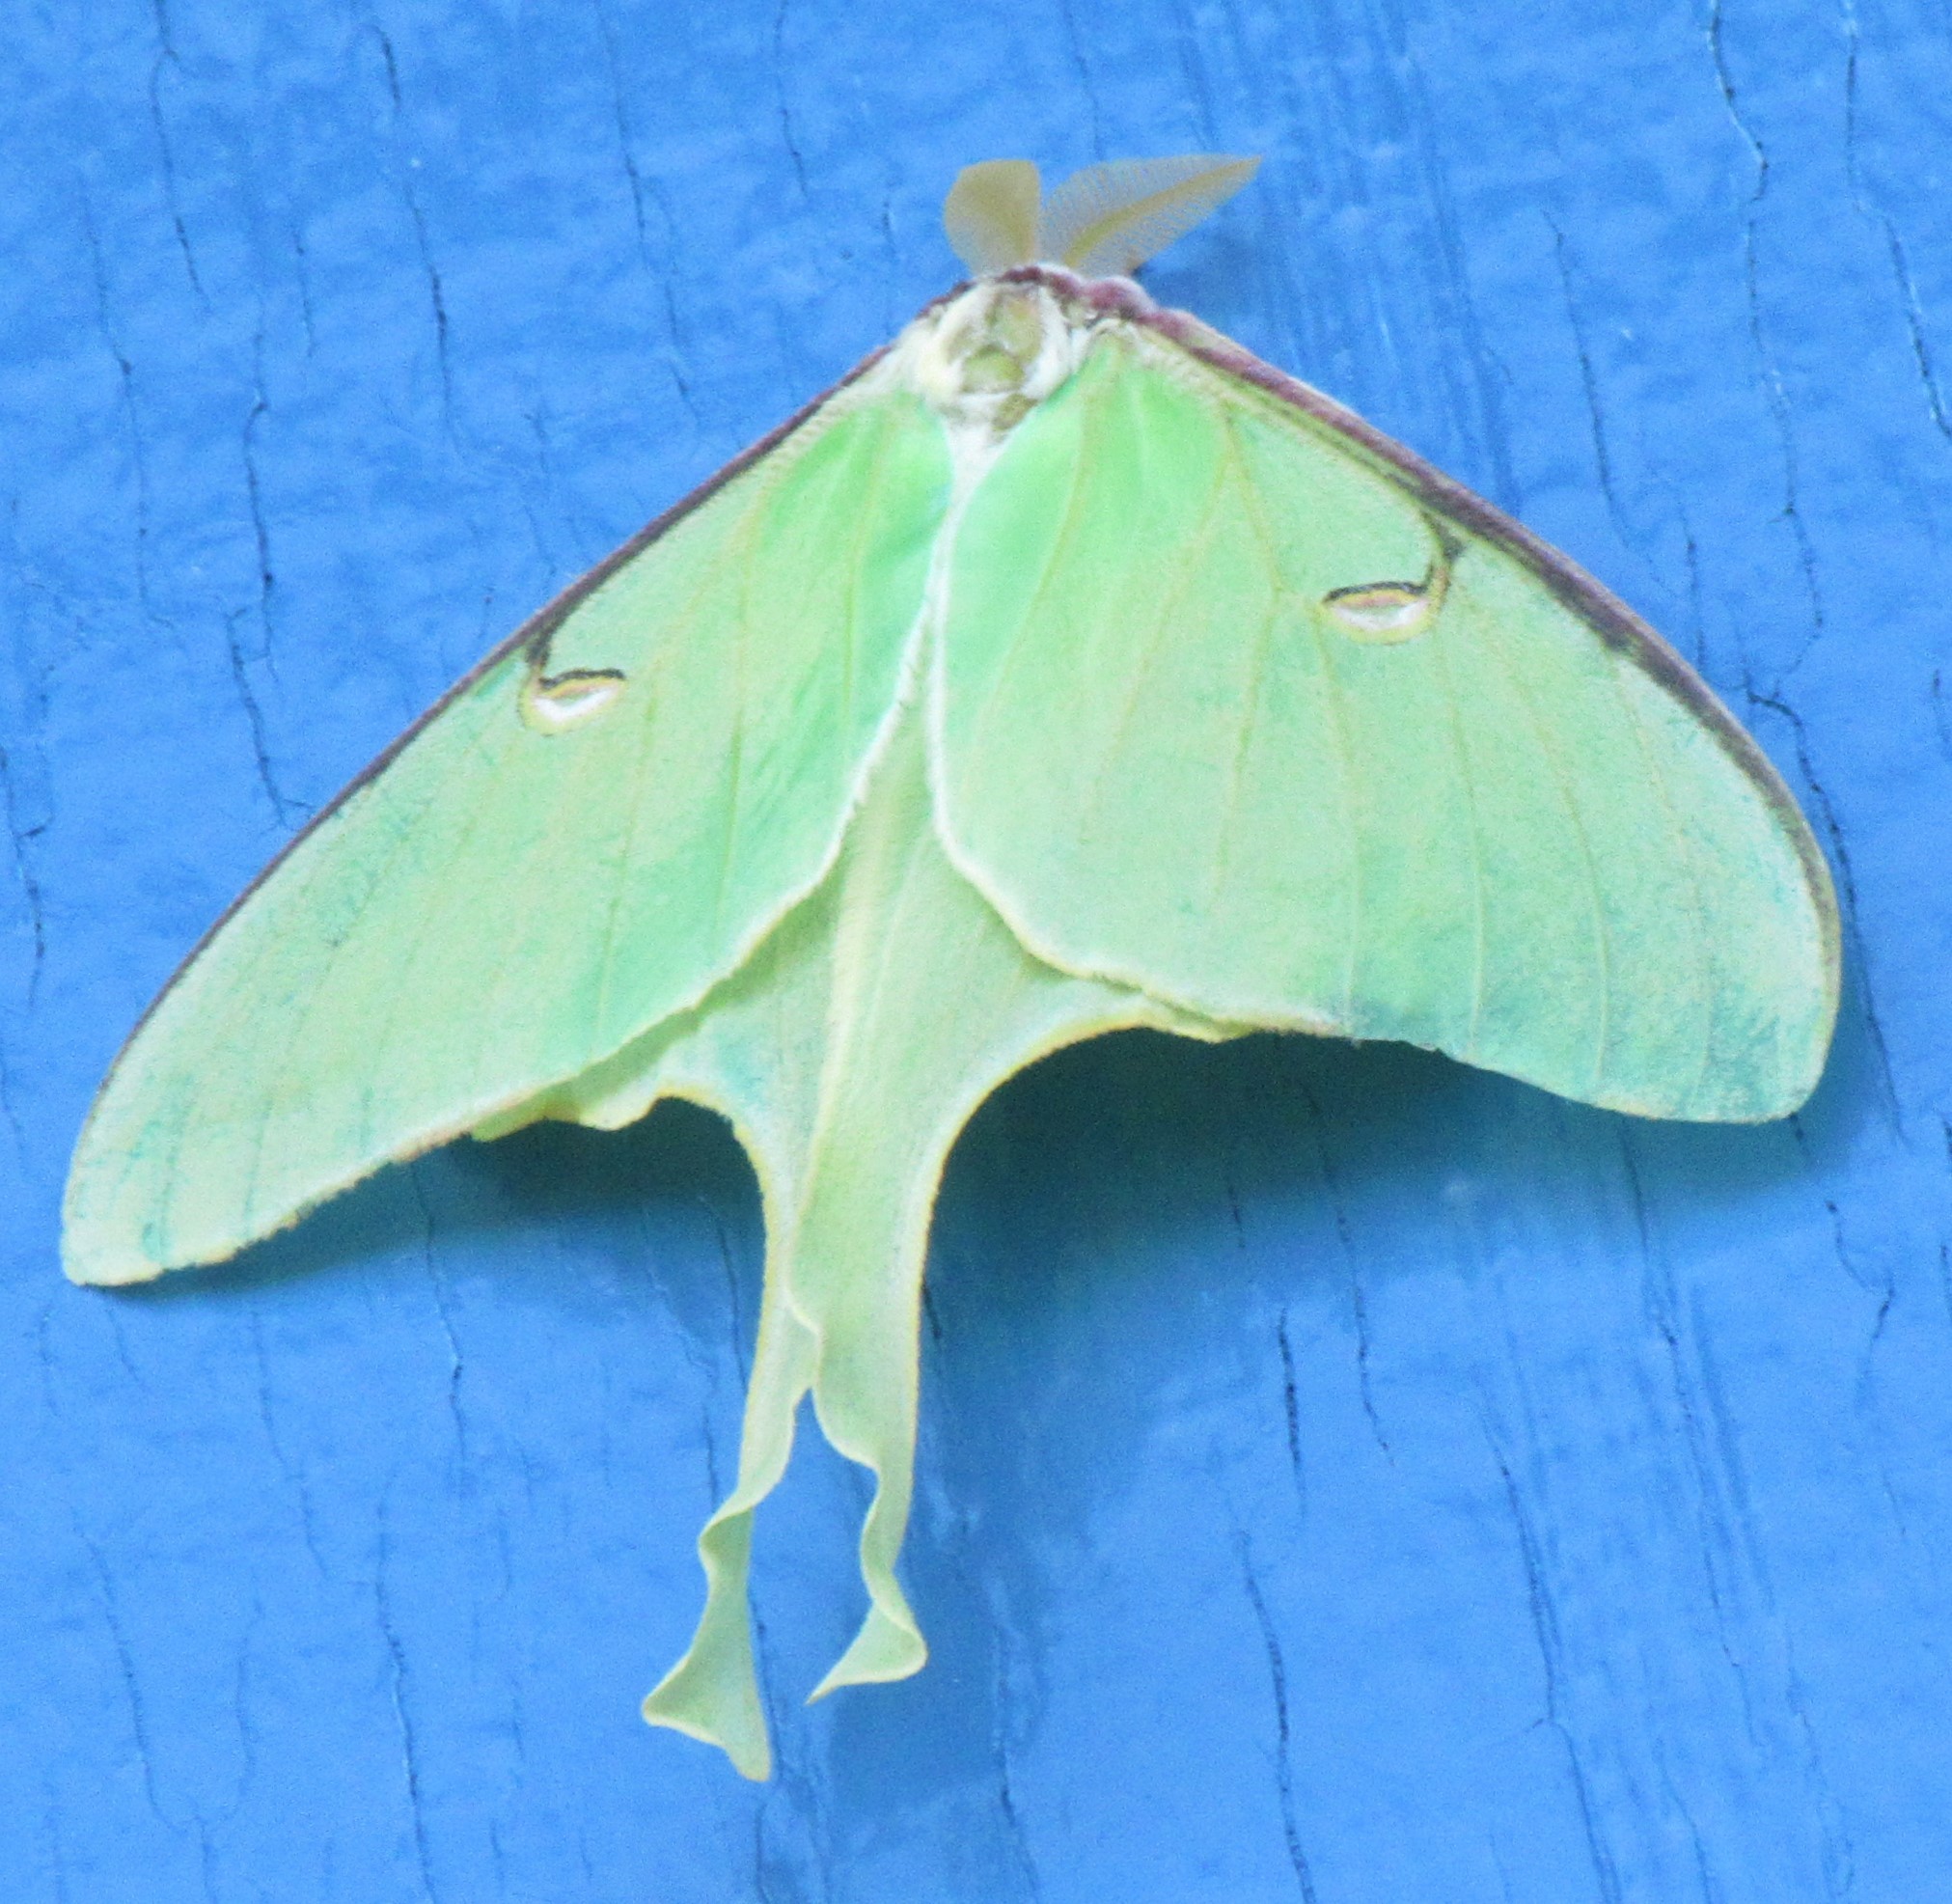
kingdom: Animalia
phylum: Arthropoda
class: Insecta
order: Lepidoptera
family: Saturniidae
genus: Actias
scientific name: Actias luna
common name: Luna moth
